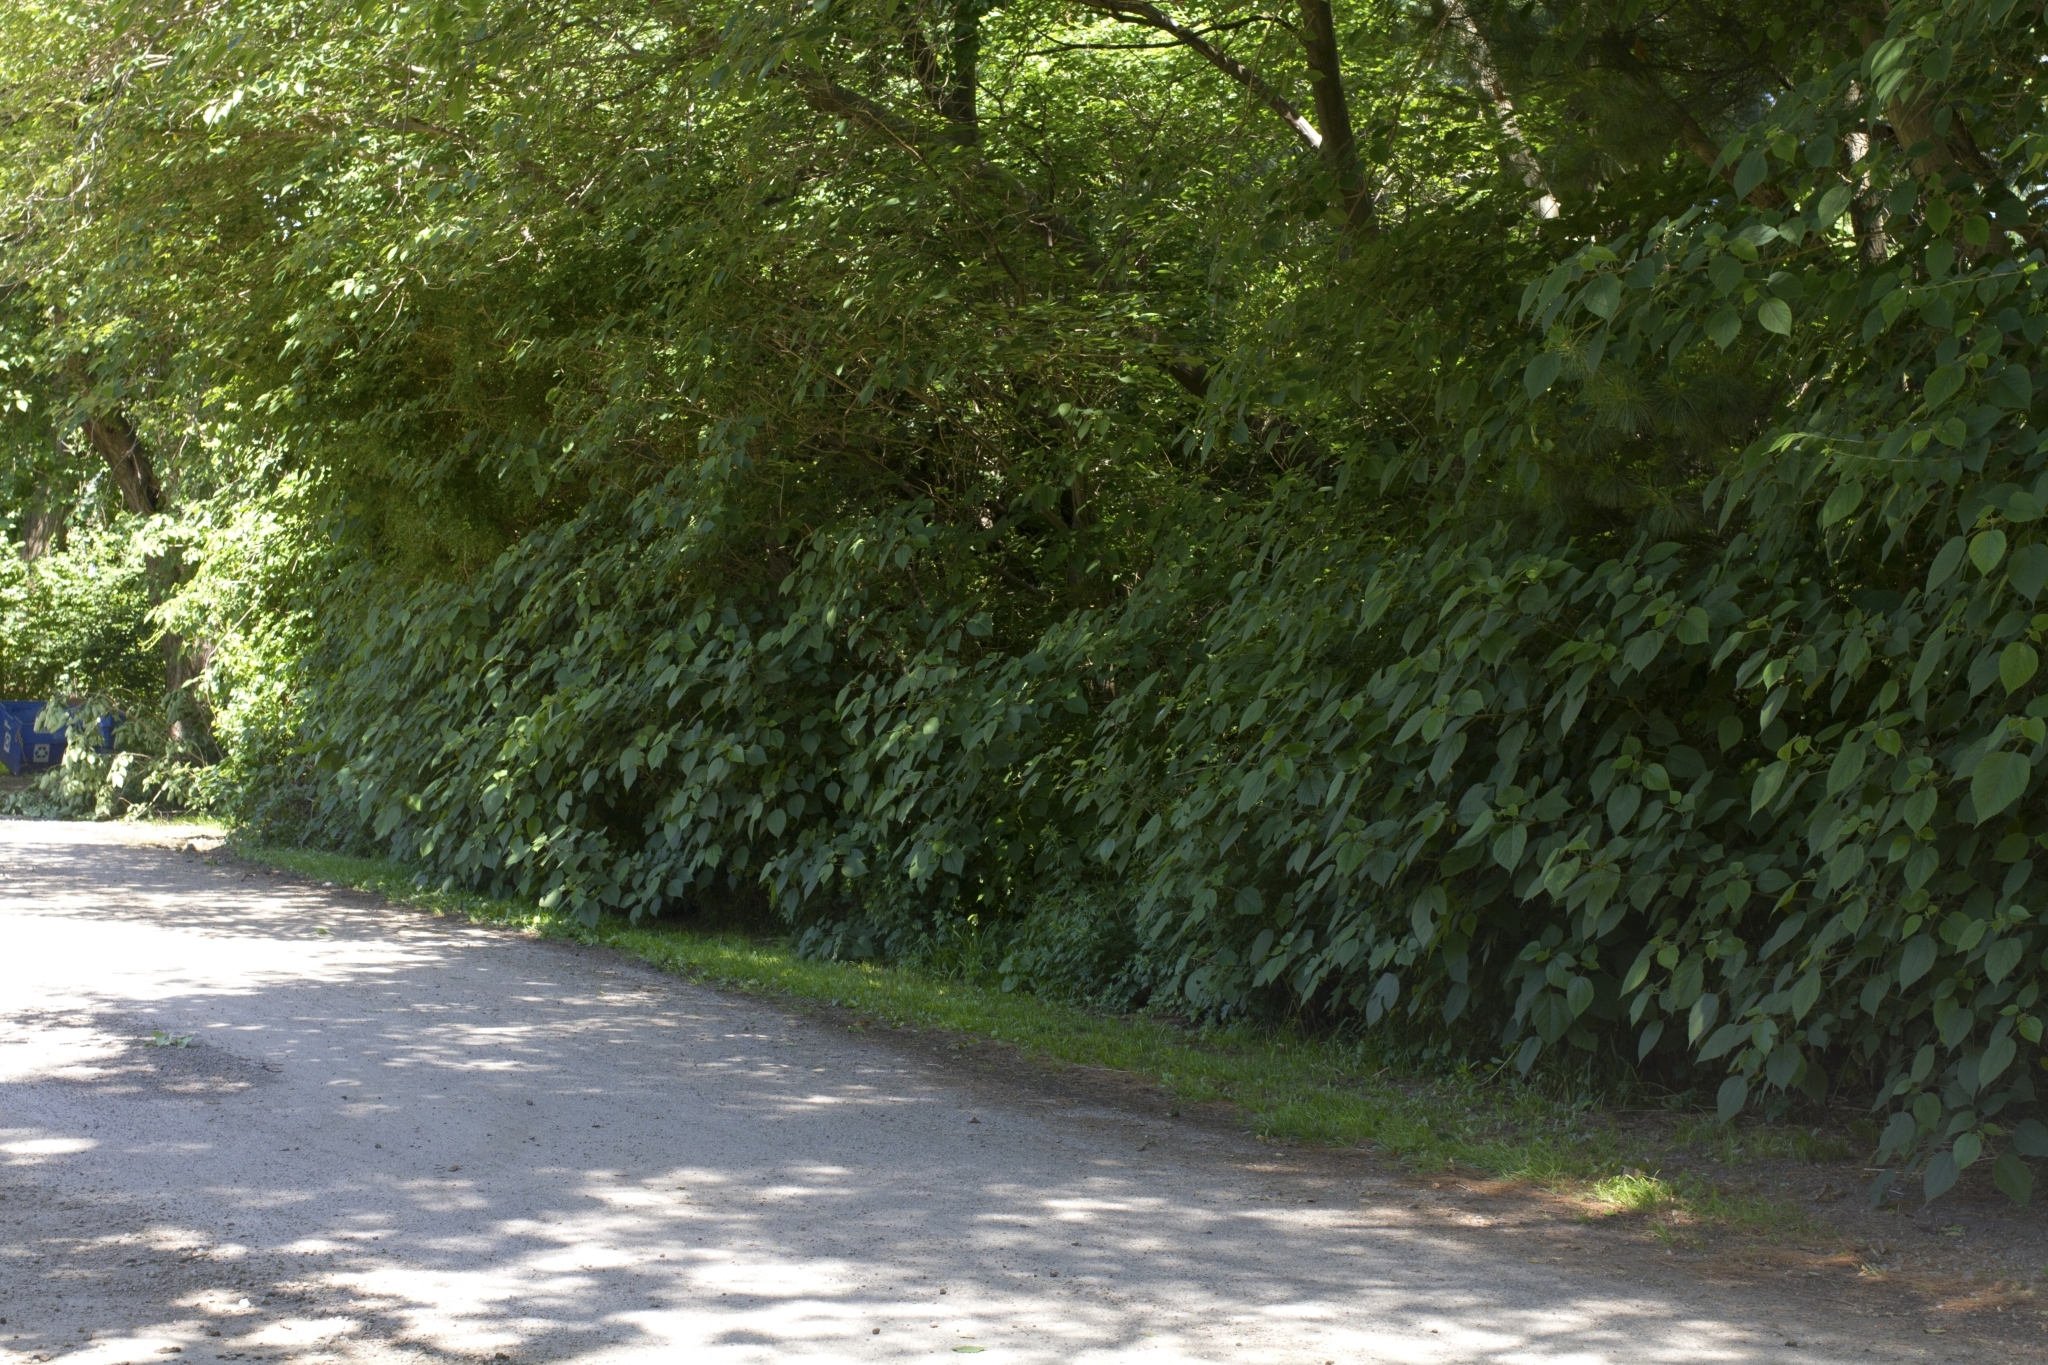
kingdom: Plantae
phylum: Tracheophyta
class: Magnoliopsida
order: Rosales
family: Moraceae
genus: Broussonetia
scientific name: Broussonetia papyrifera
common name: Paper mulberry
